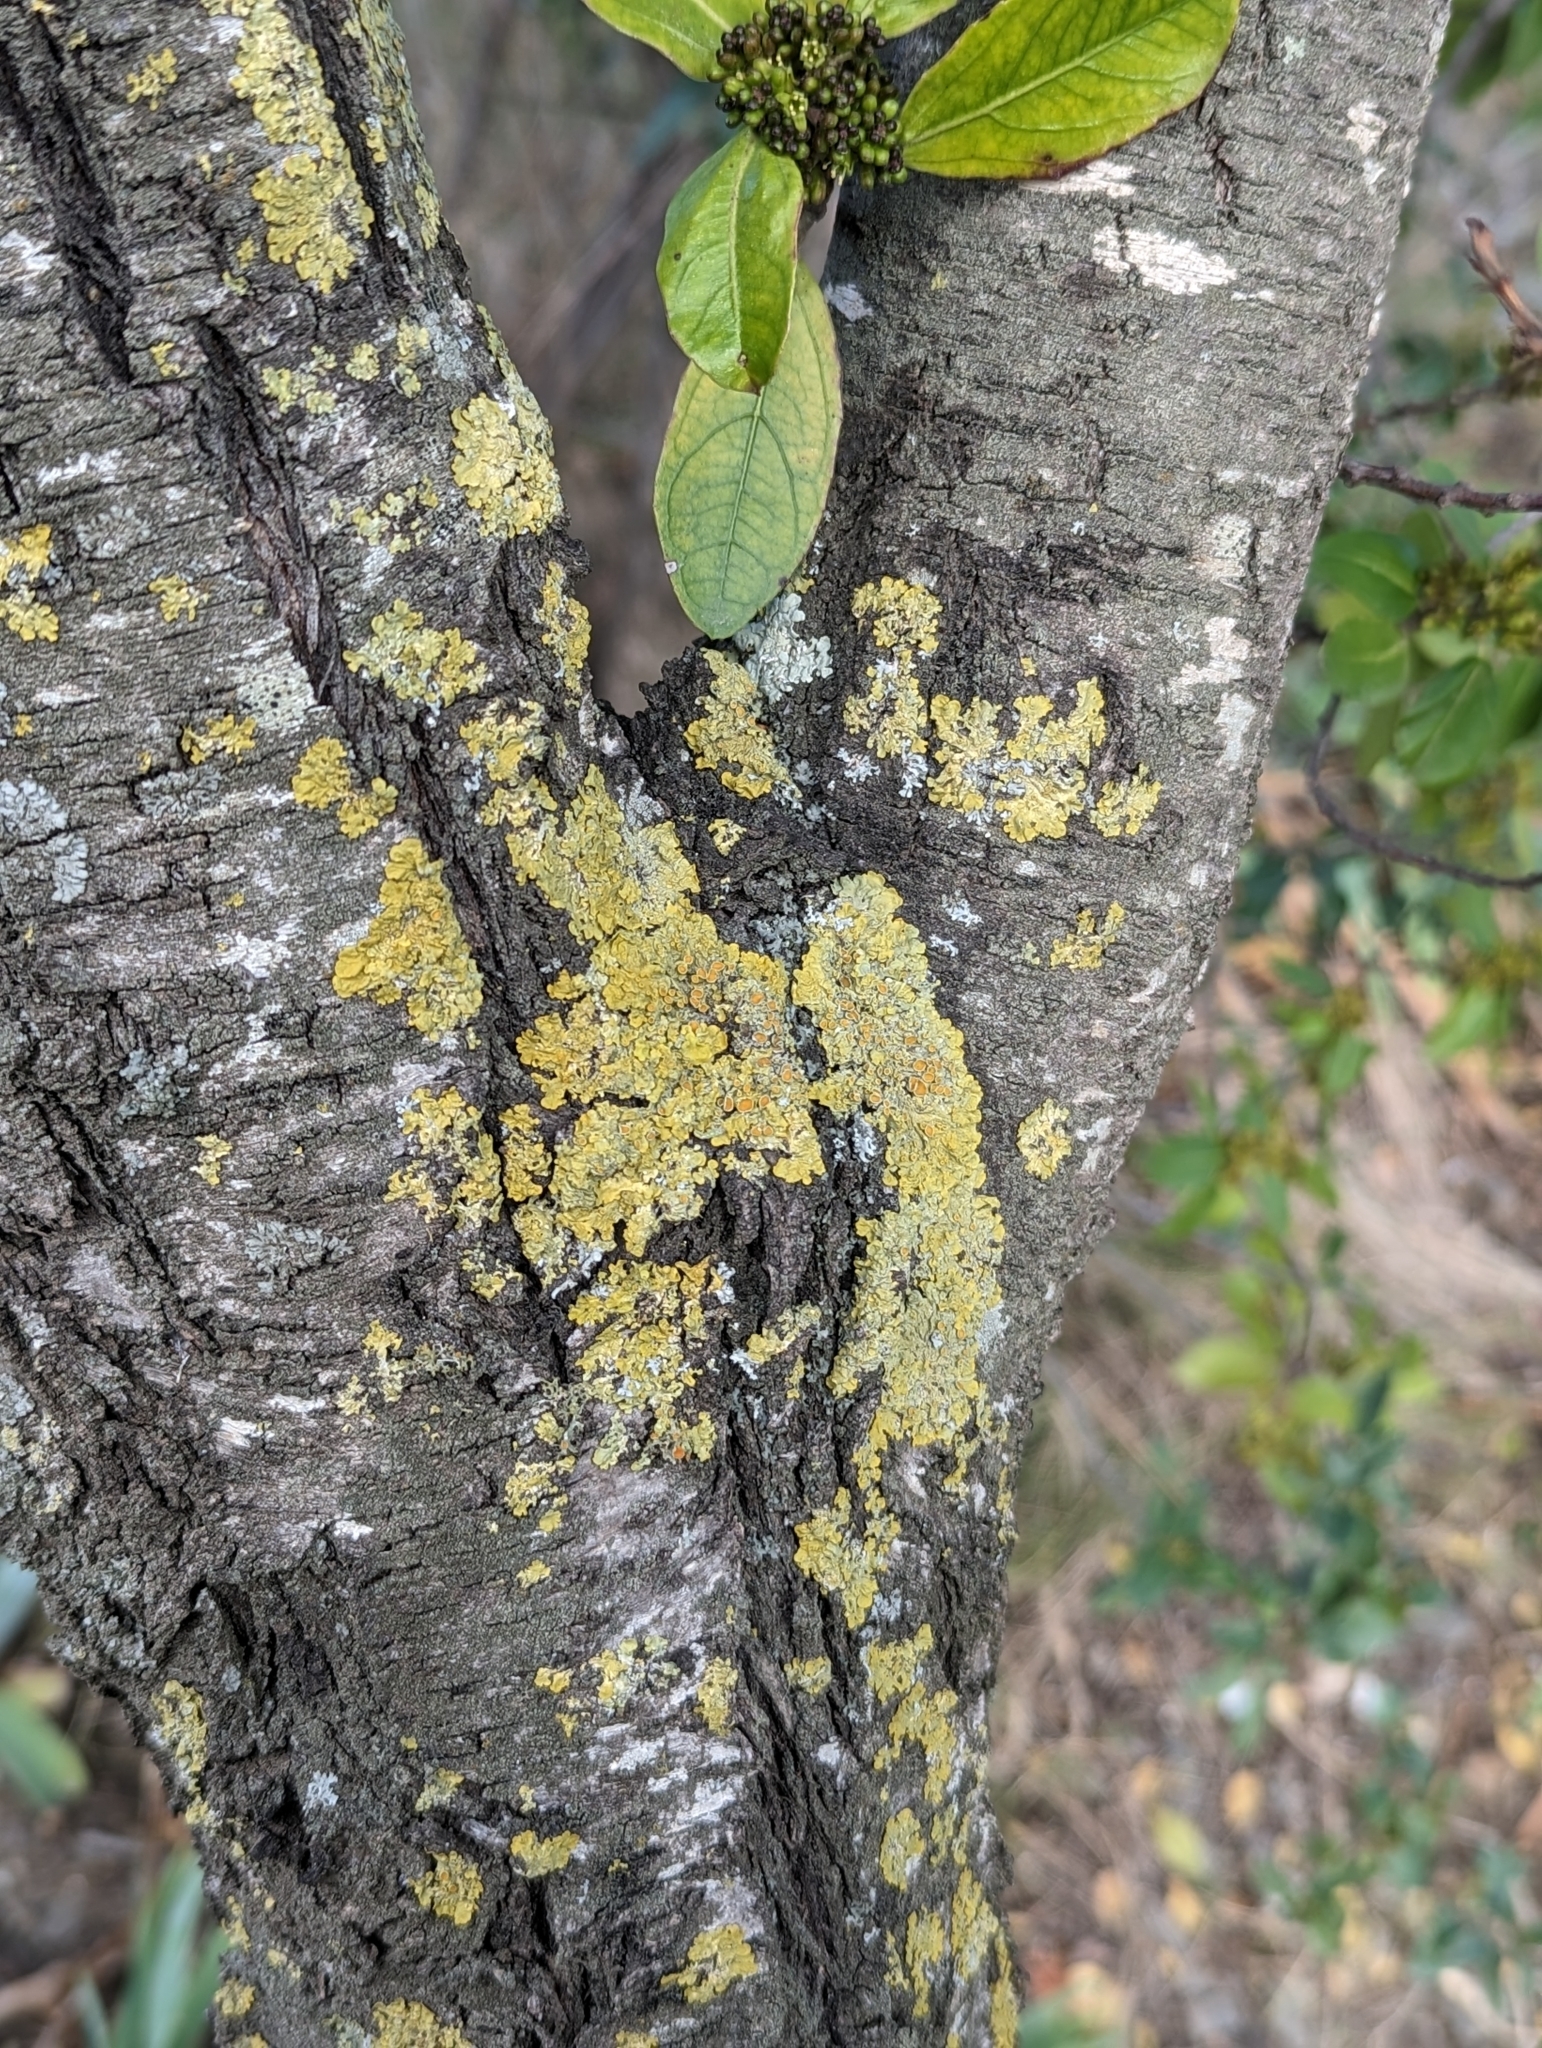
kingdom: Fungi
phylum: Ascomycota
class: Lecanoromycetes
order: Teloschistales
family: Teloschistaceae
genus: Xanthoria
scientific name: Xanthoria parietina
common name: Common orange lichen
